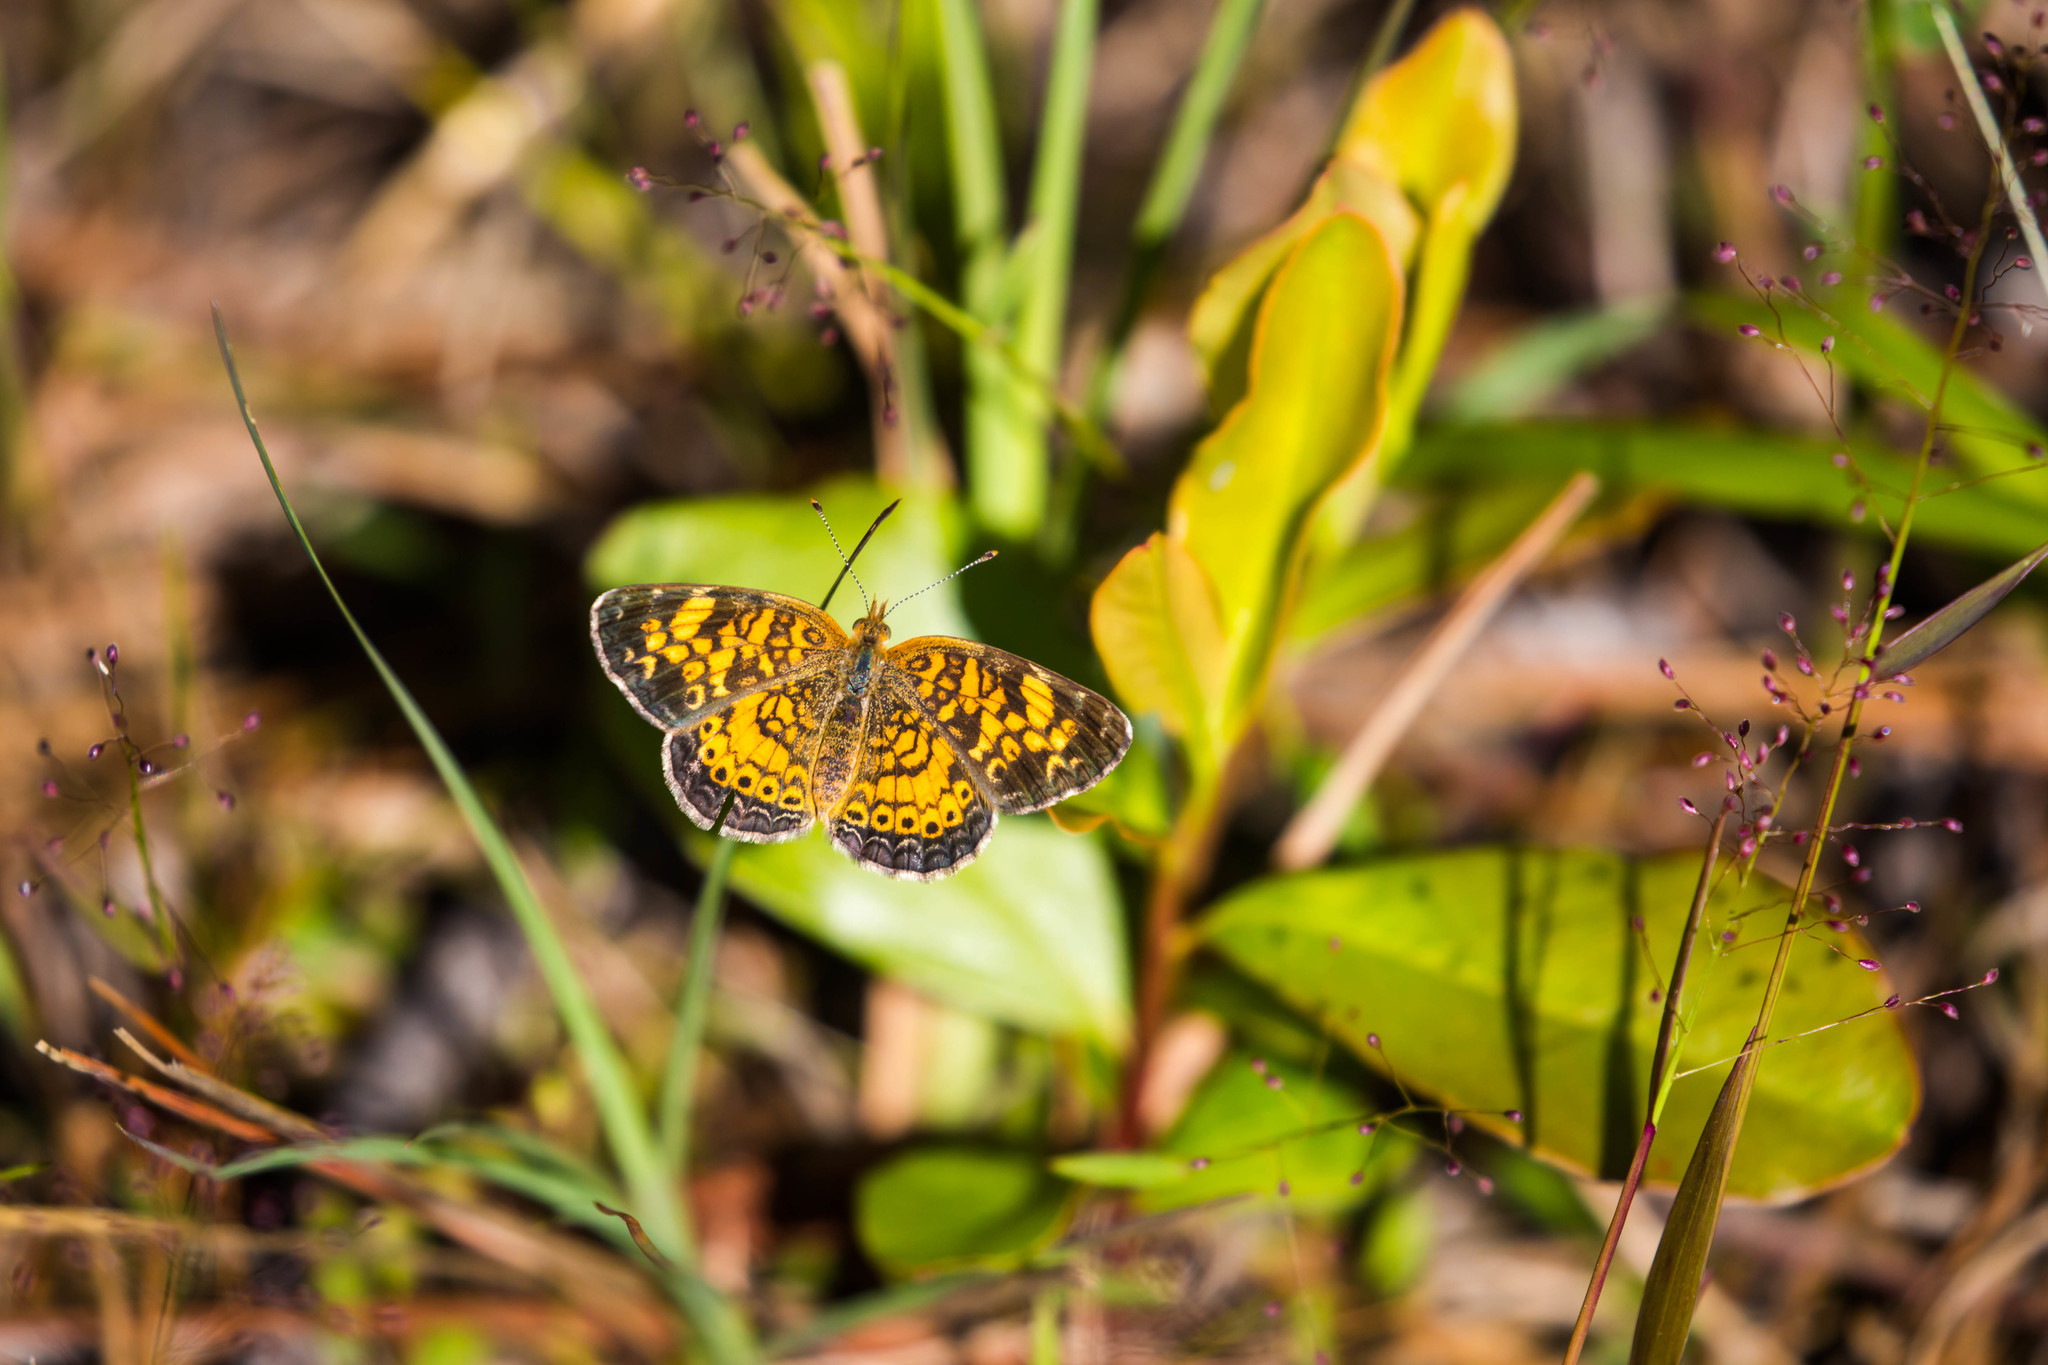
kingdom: Animalia
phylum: Arthropoda
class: Insecta
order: Lepidoptera
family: Nymphalidae
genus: Phyciodes
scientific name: Phyciodes tharos
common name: Pearl crescent
